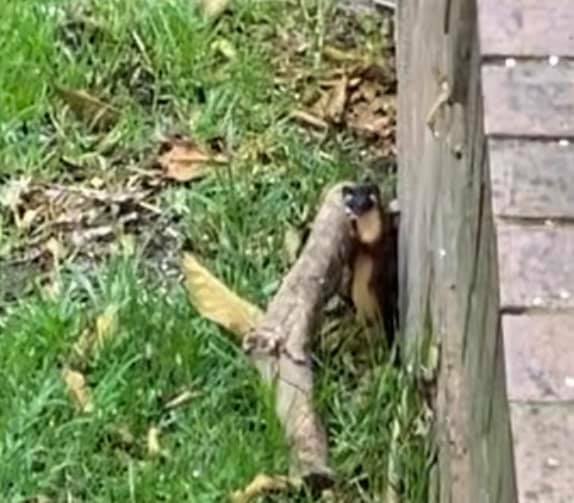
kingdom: Animalia
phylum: Chordata
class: Mammalia
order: Carnivora
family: Mustelidae
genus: Mustela
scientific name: Mustela
